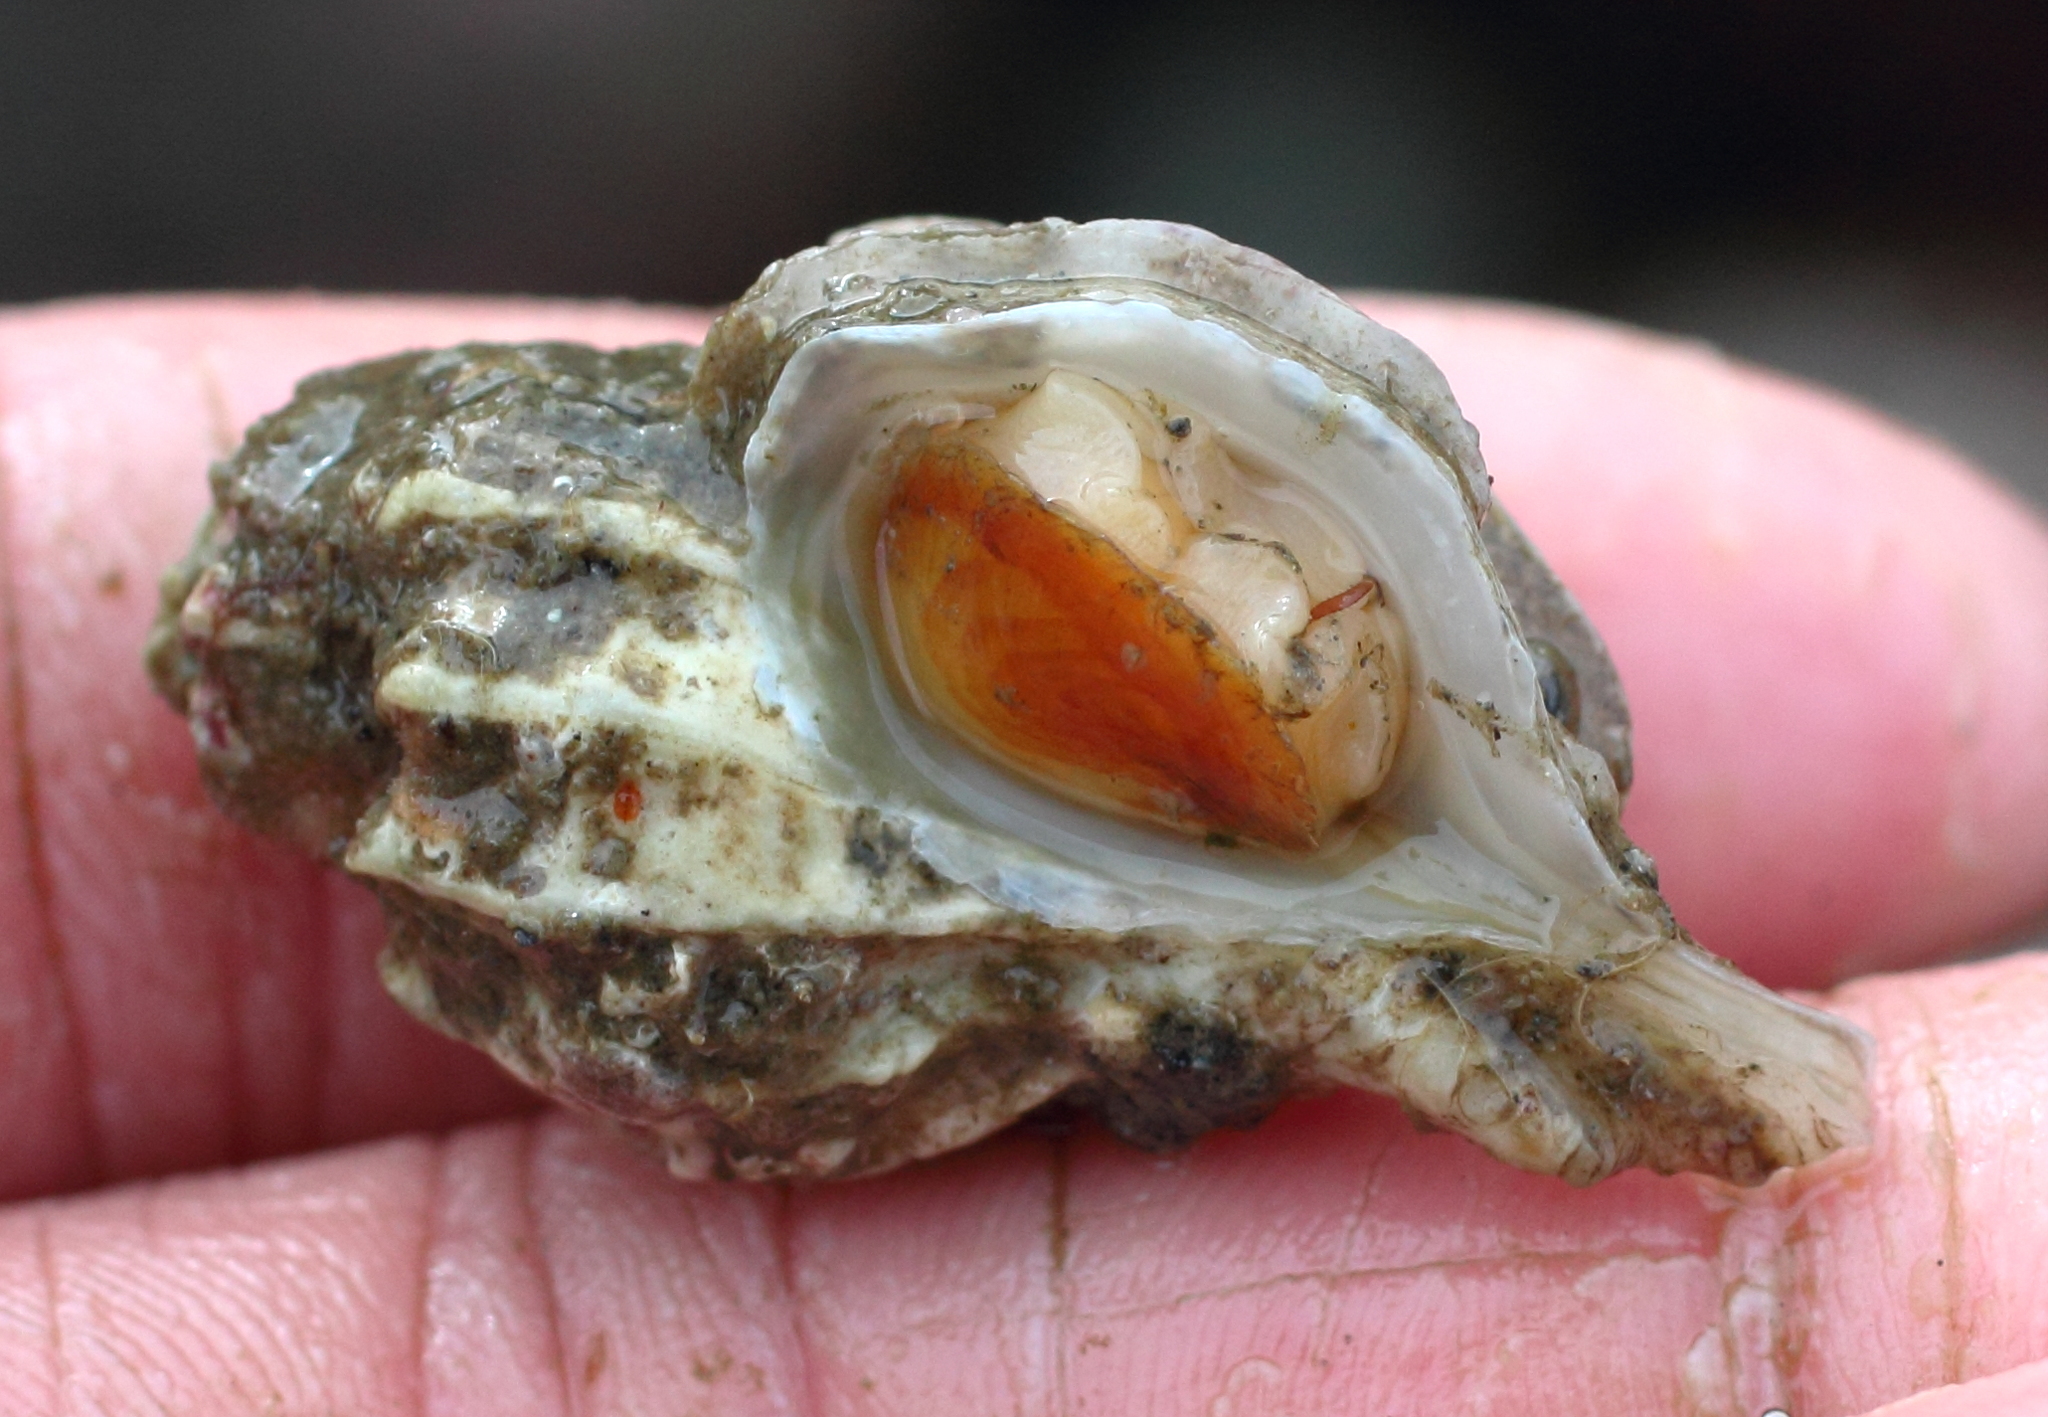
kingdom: Animalia
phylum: Mollusca
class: Gastropoda
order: Neogastropoda
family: Muricidae
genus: Scabrotrophon
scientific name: Scabrotrophon stuarti
